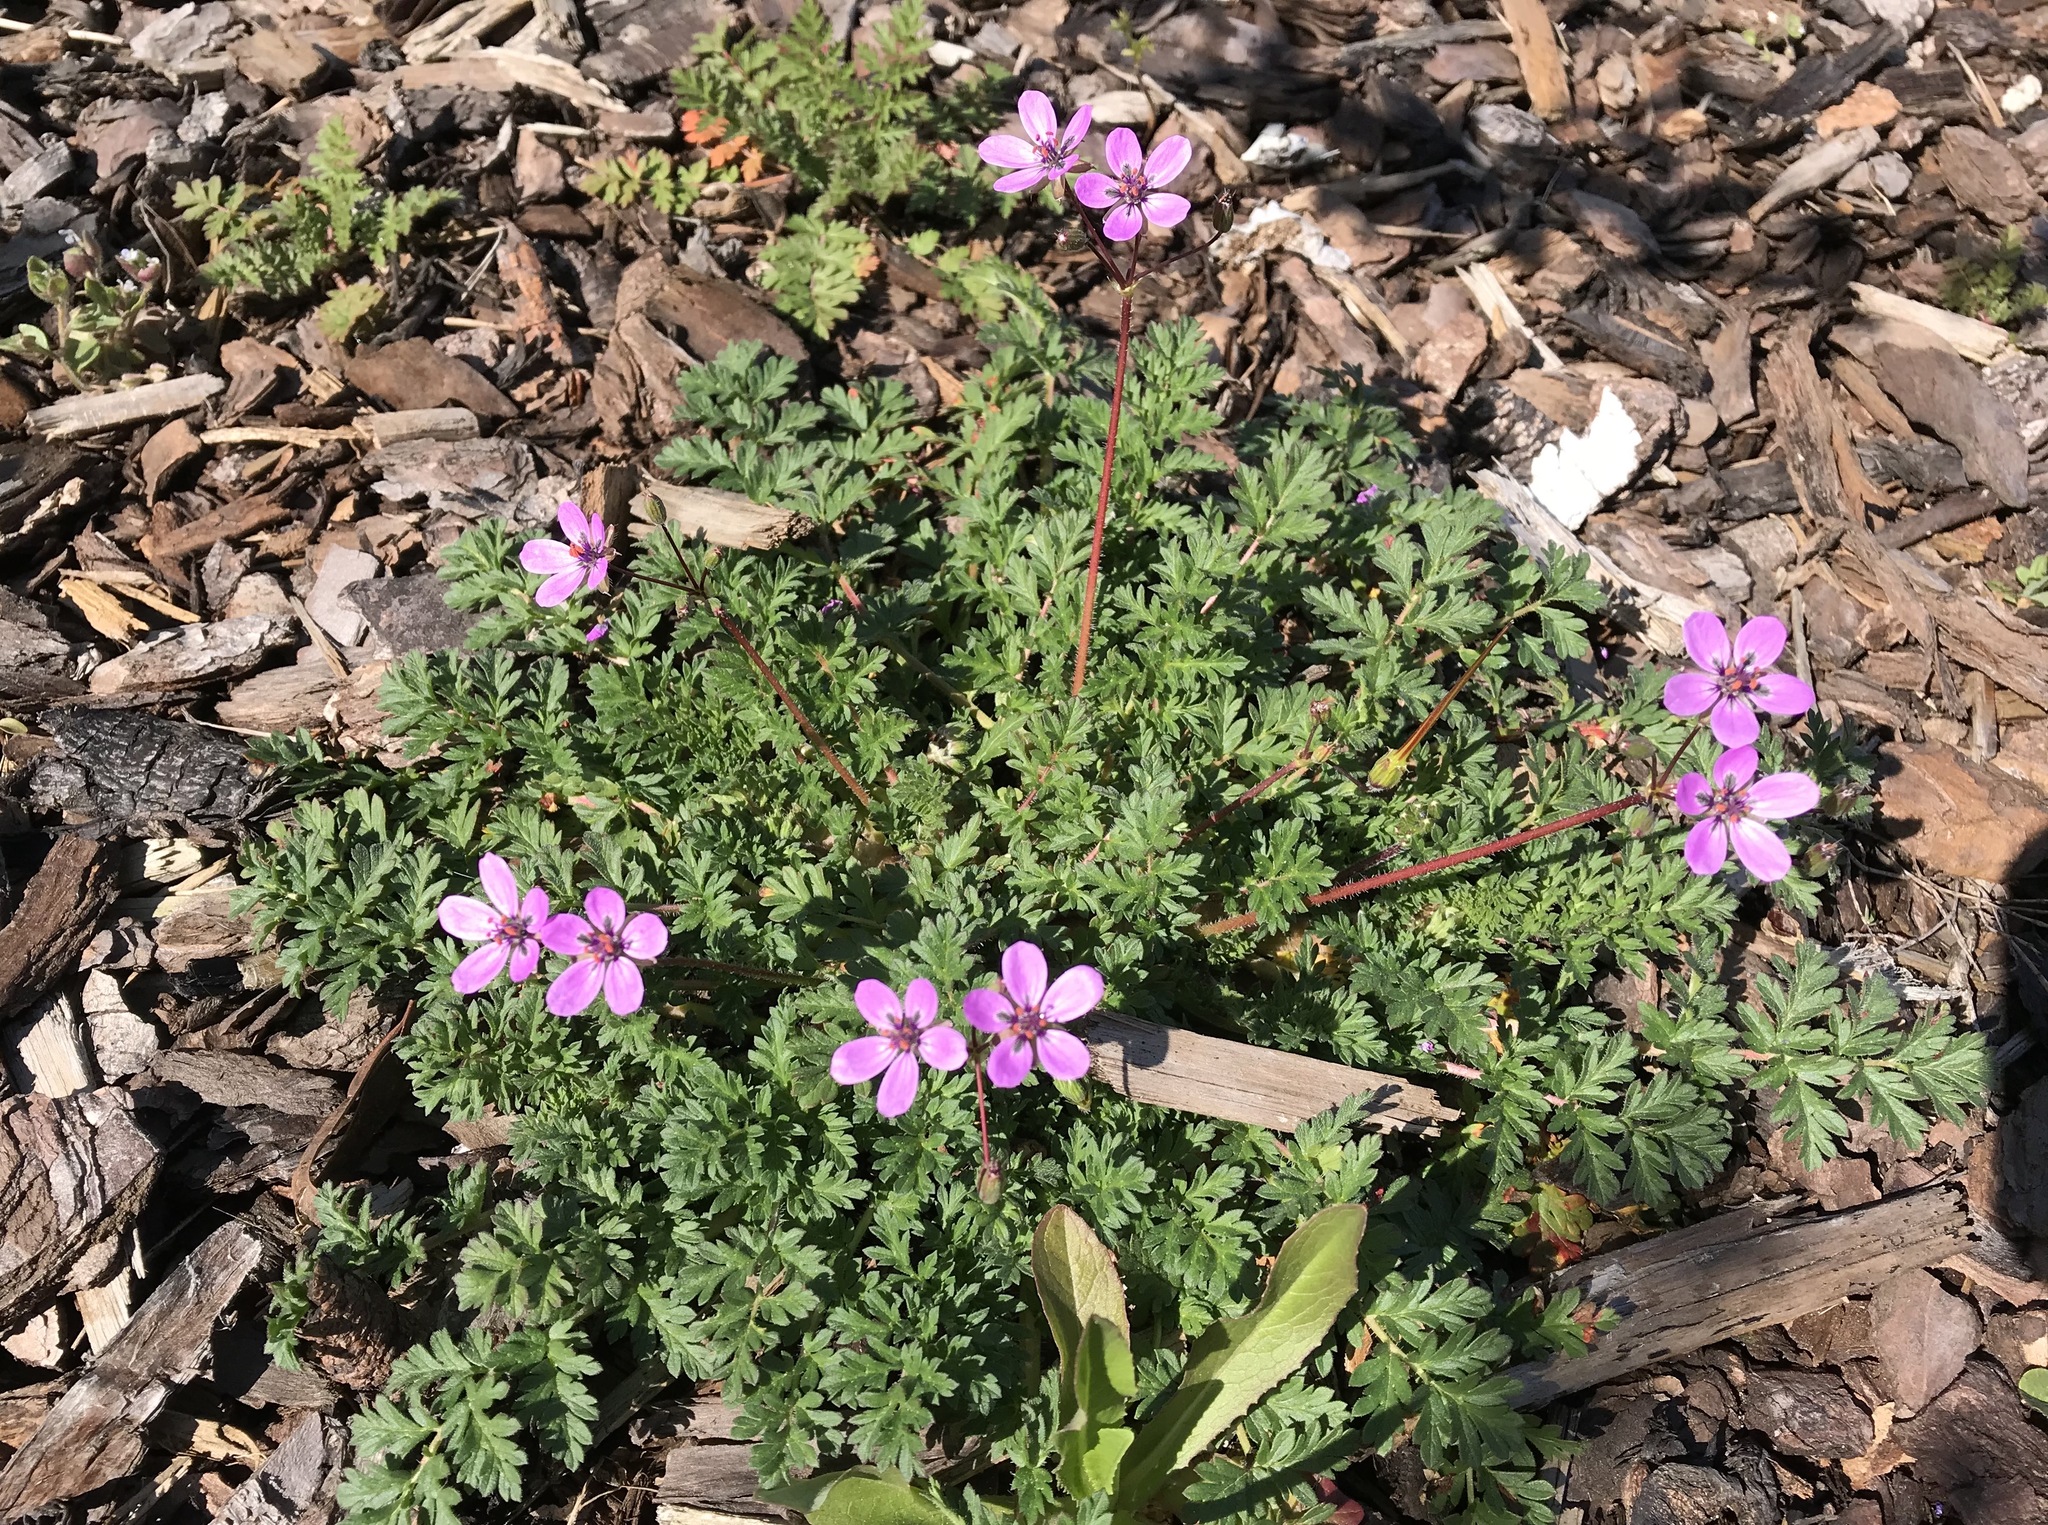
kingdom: Plantae
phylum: Tracheophyta
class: Magnoliopsida
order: Geraniales
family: Geraniaceae
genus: Erodium
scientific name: Erodium cicutarium
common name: Common stork's-bill
